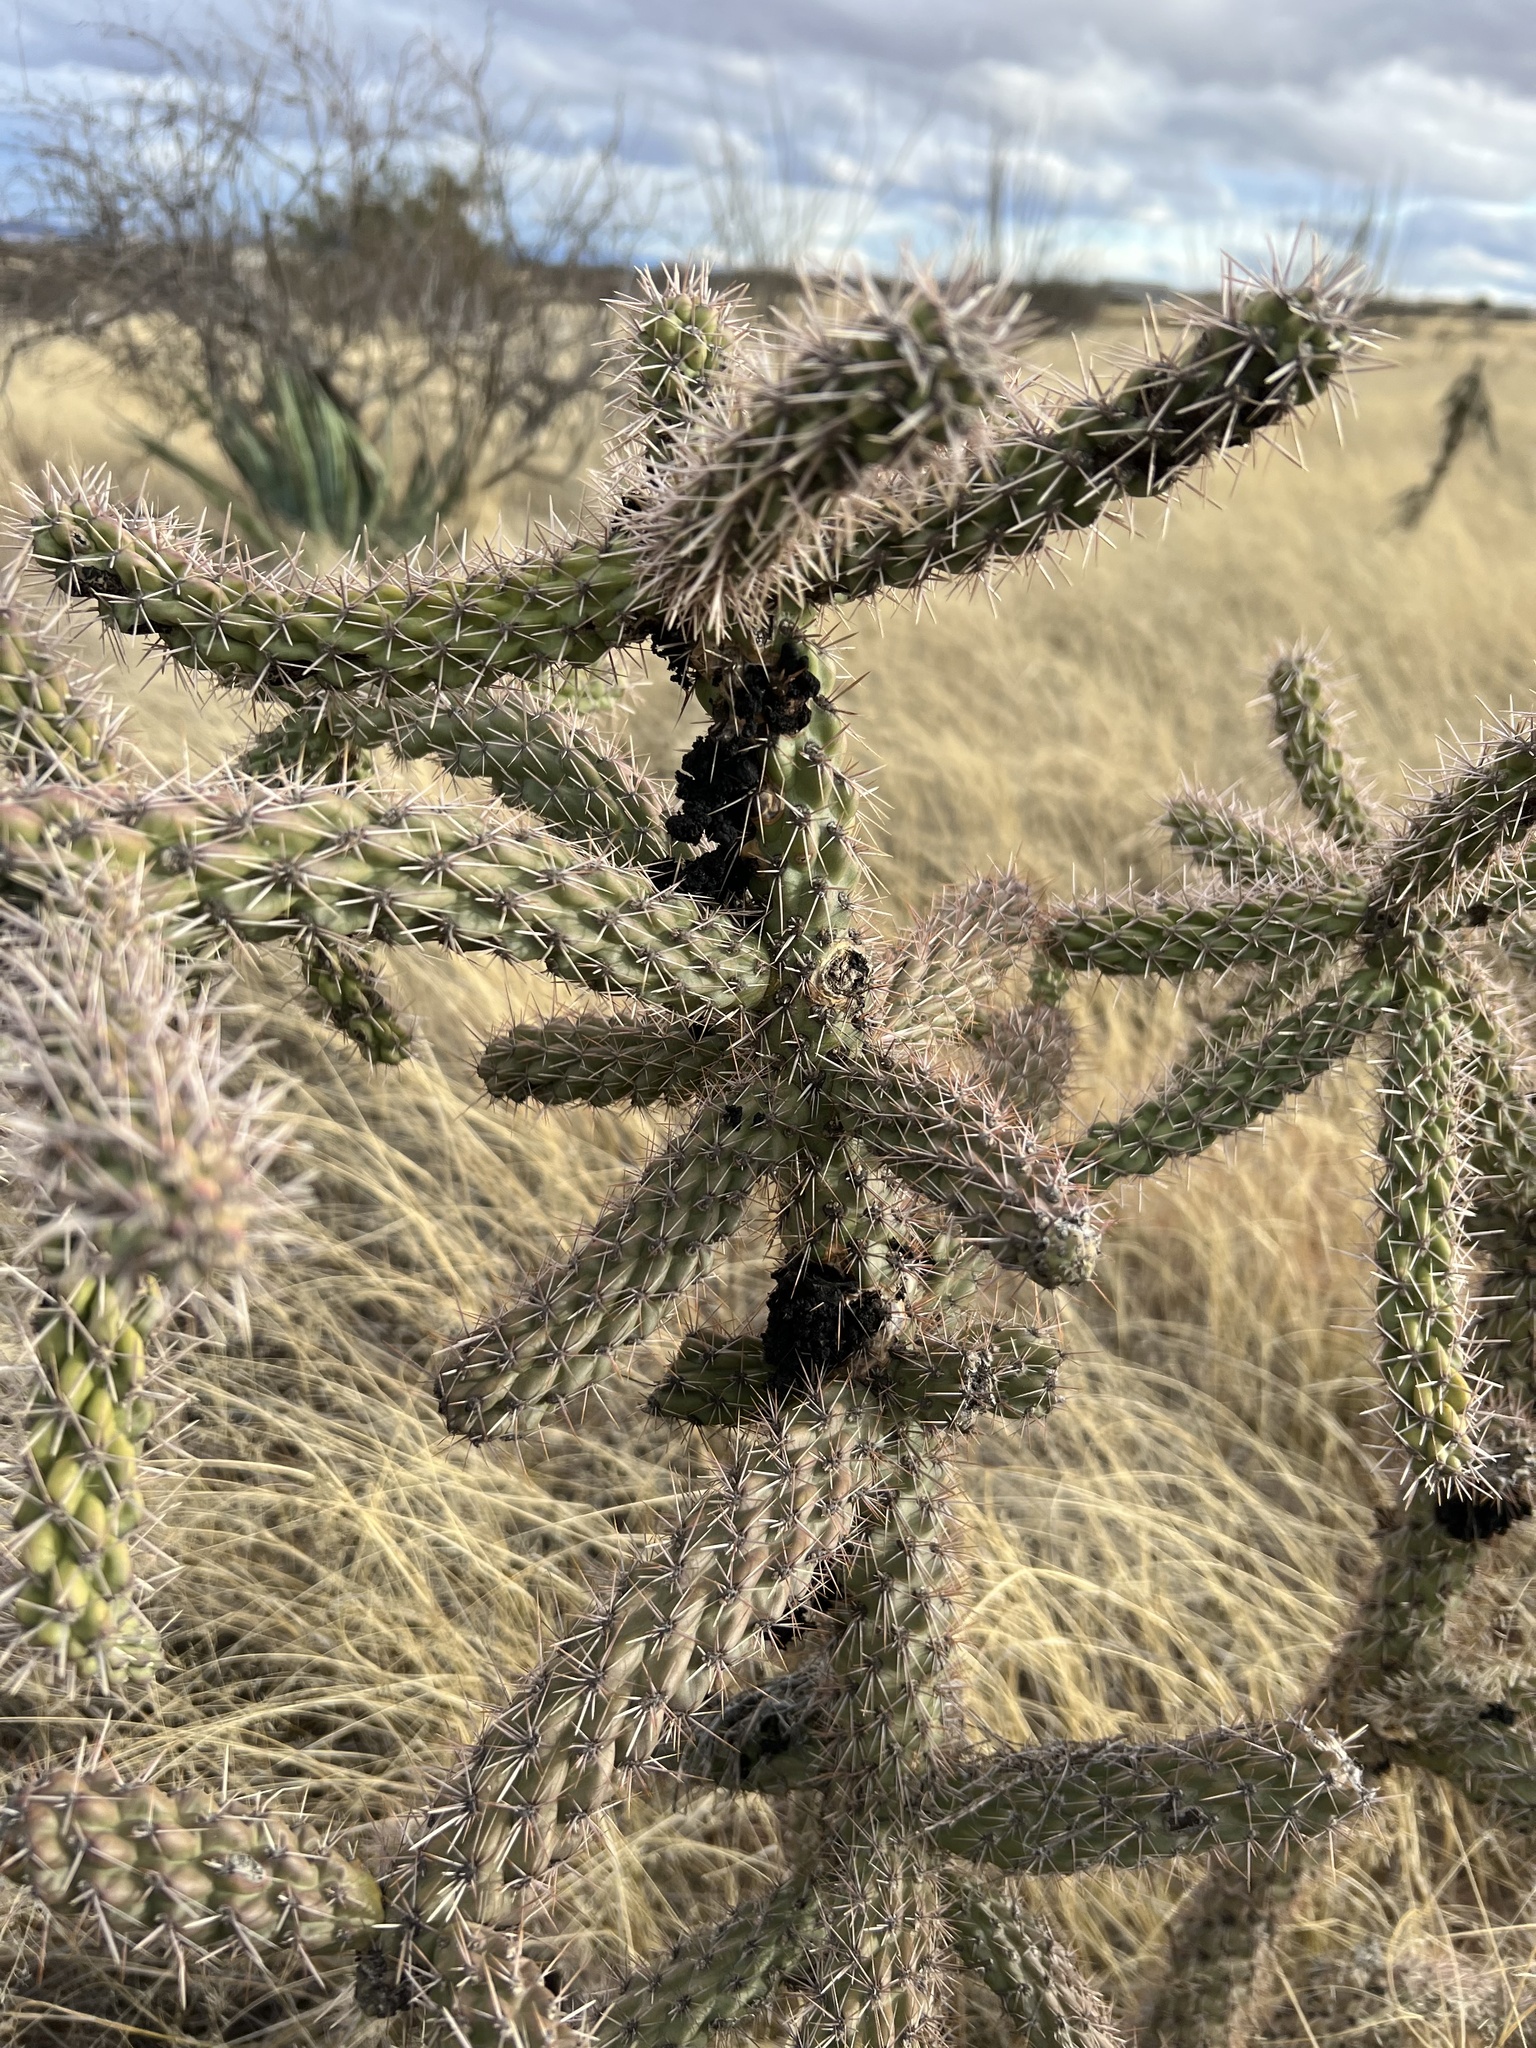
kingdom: Animalia
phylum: Arthropoda
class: Insecta
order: Lepidoptera
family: Noctuidae
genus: Euscirrhopterus
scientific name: Euscirrhopterus cosyra
